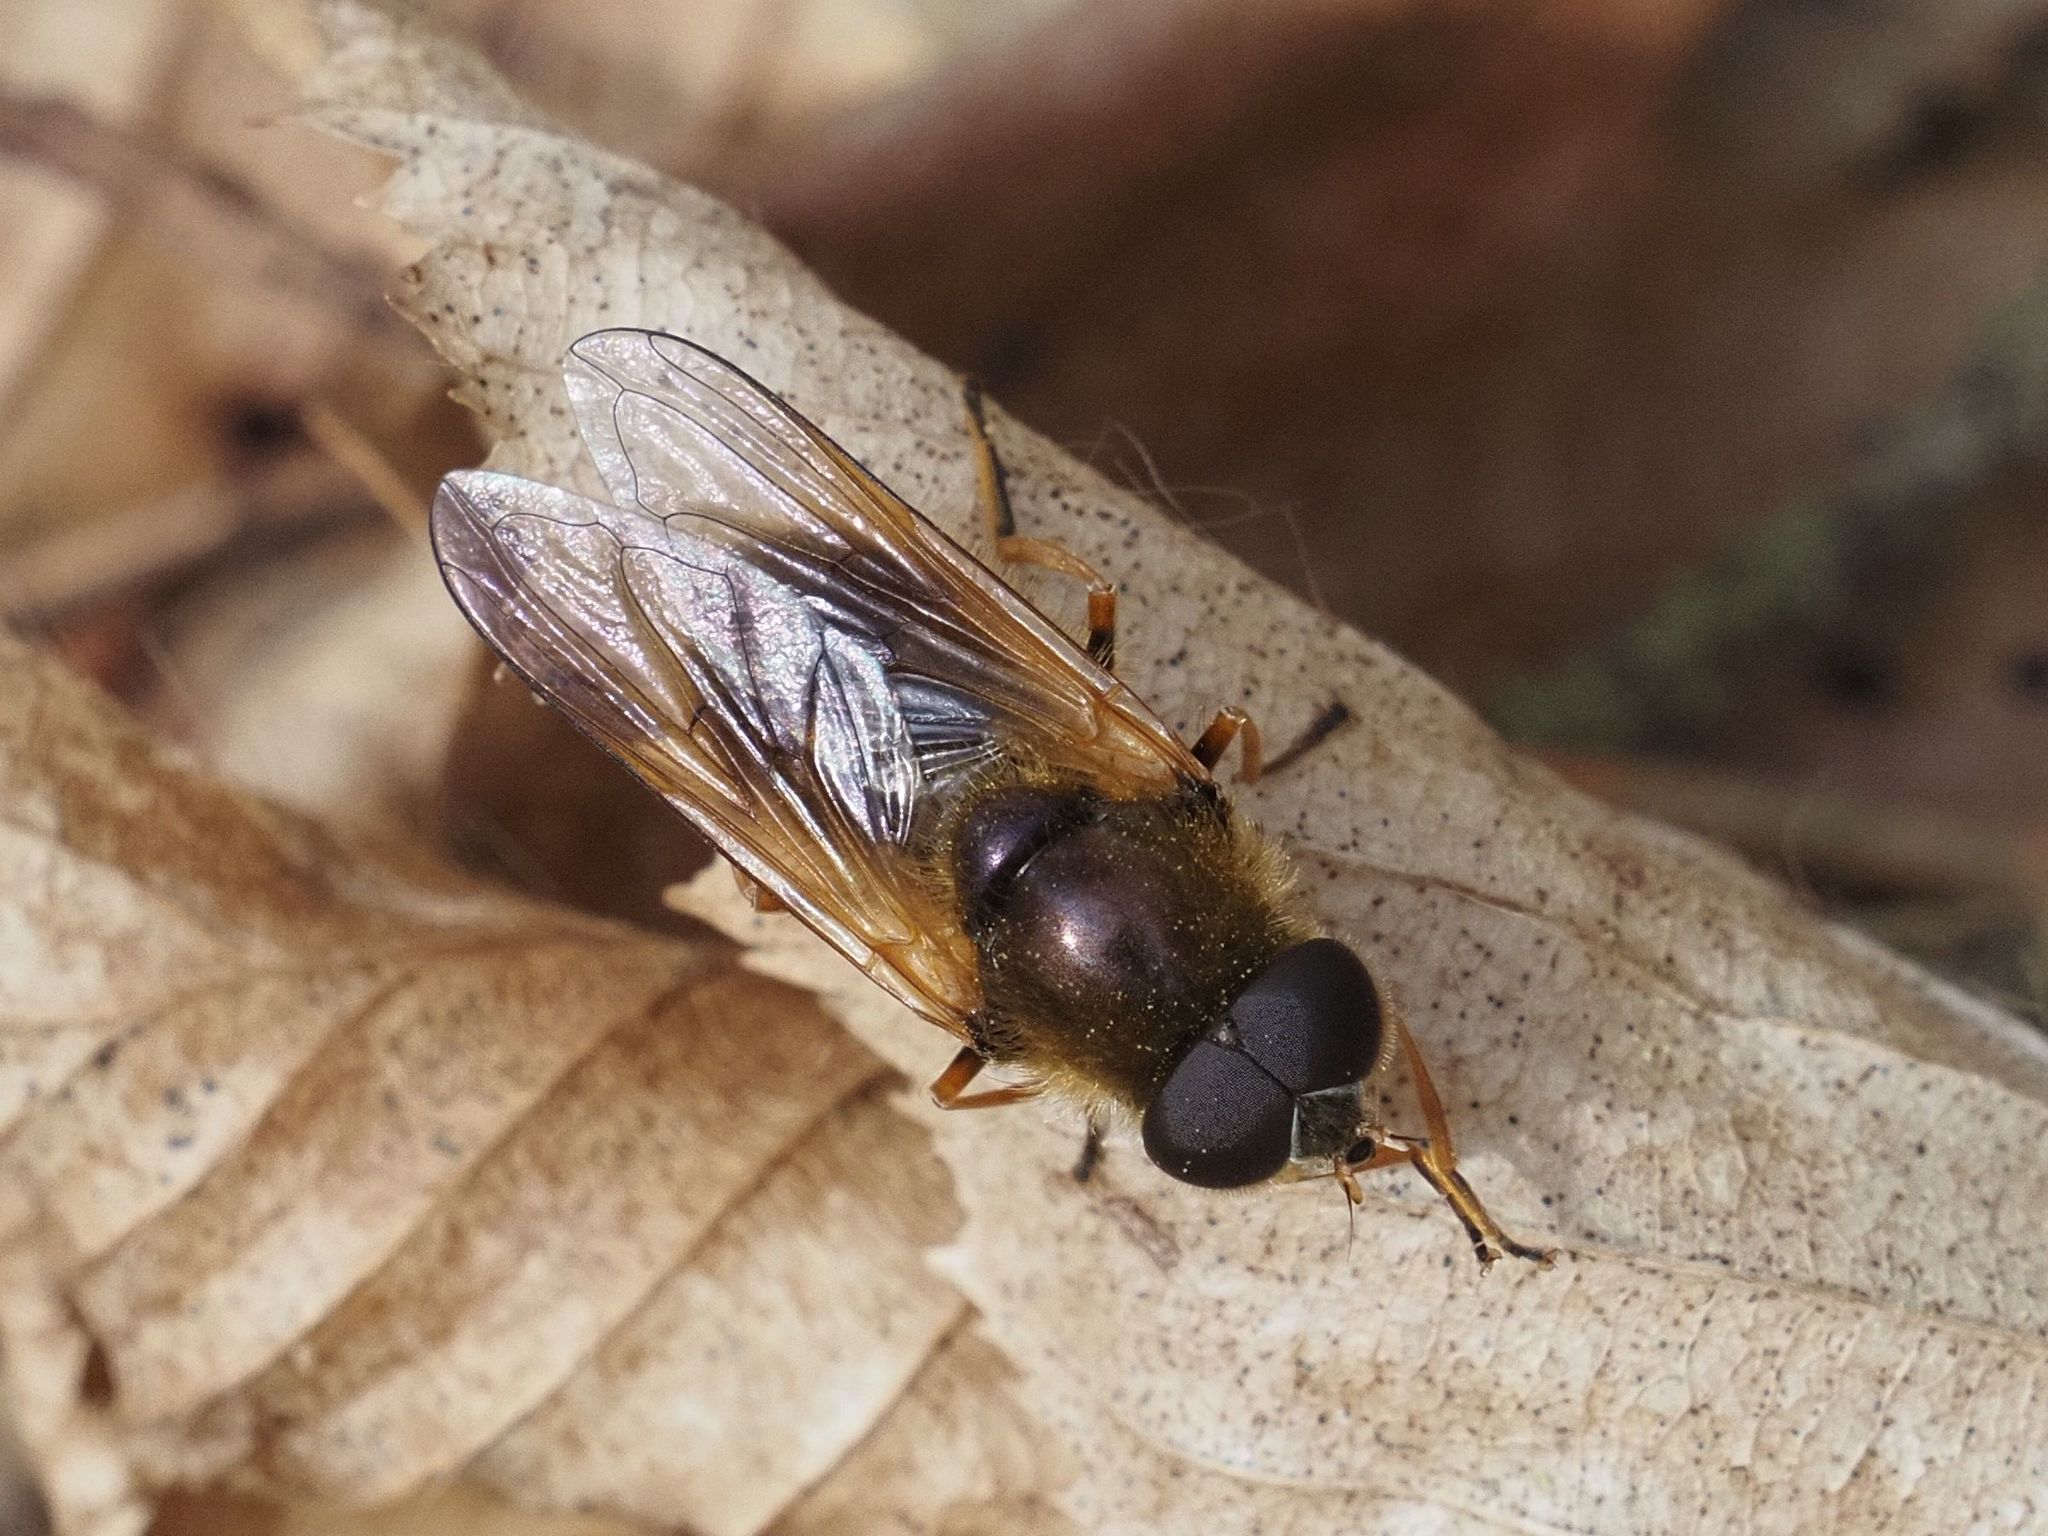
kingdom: Animalia
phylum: Arthropoda
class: Insecta
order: Diptera
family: Syrphidae
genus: Cheilosia
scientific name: Cheilosia albipila
